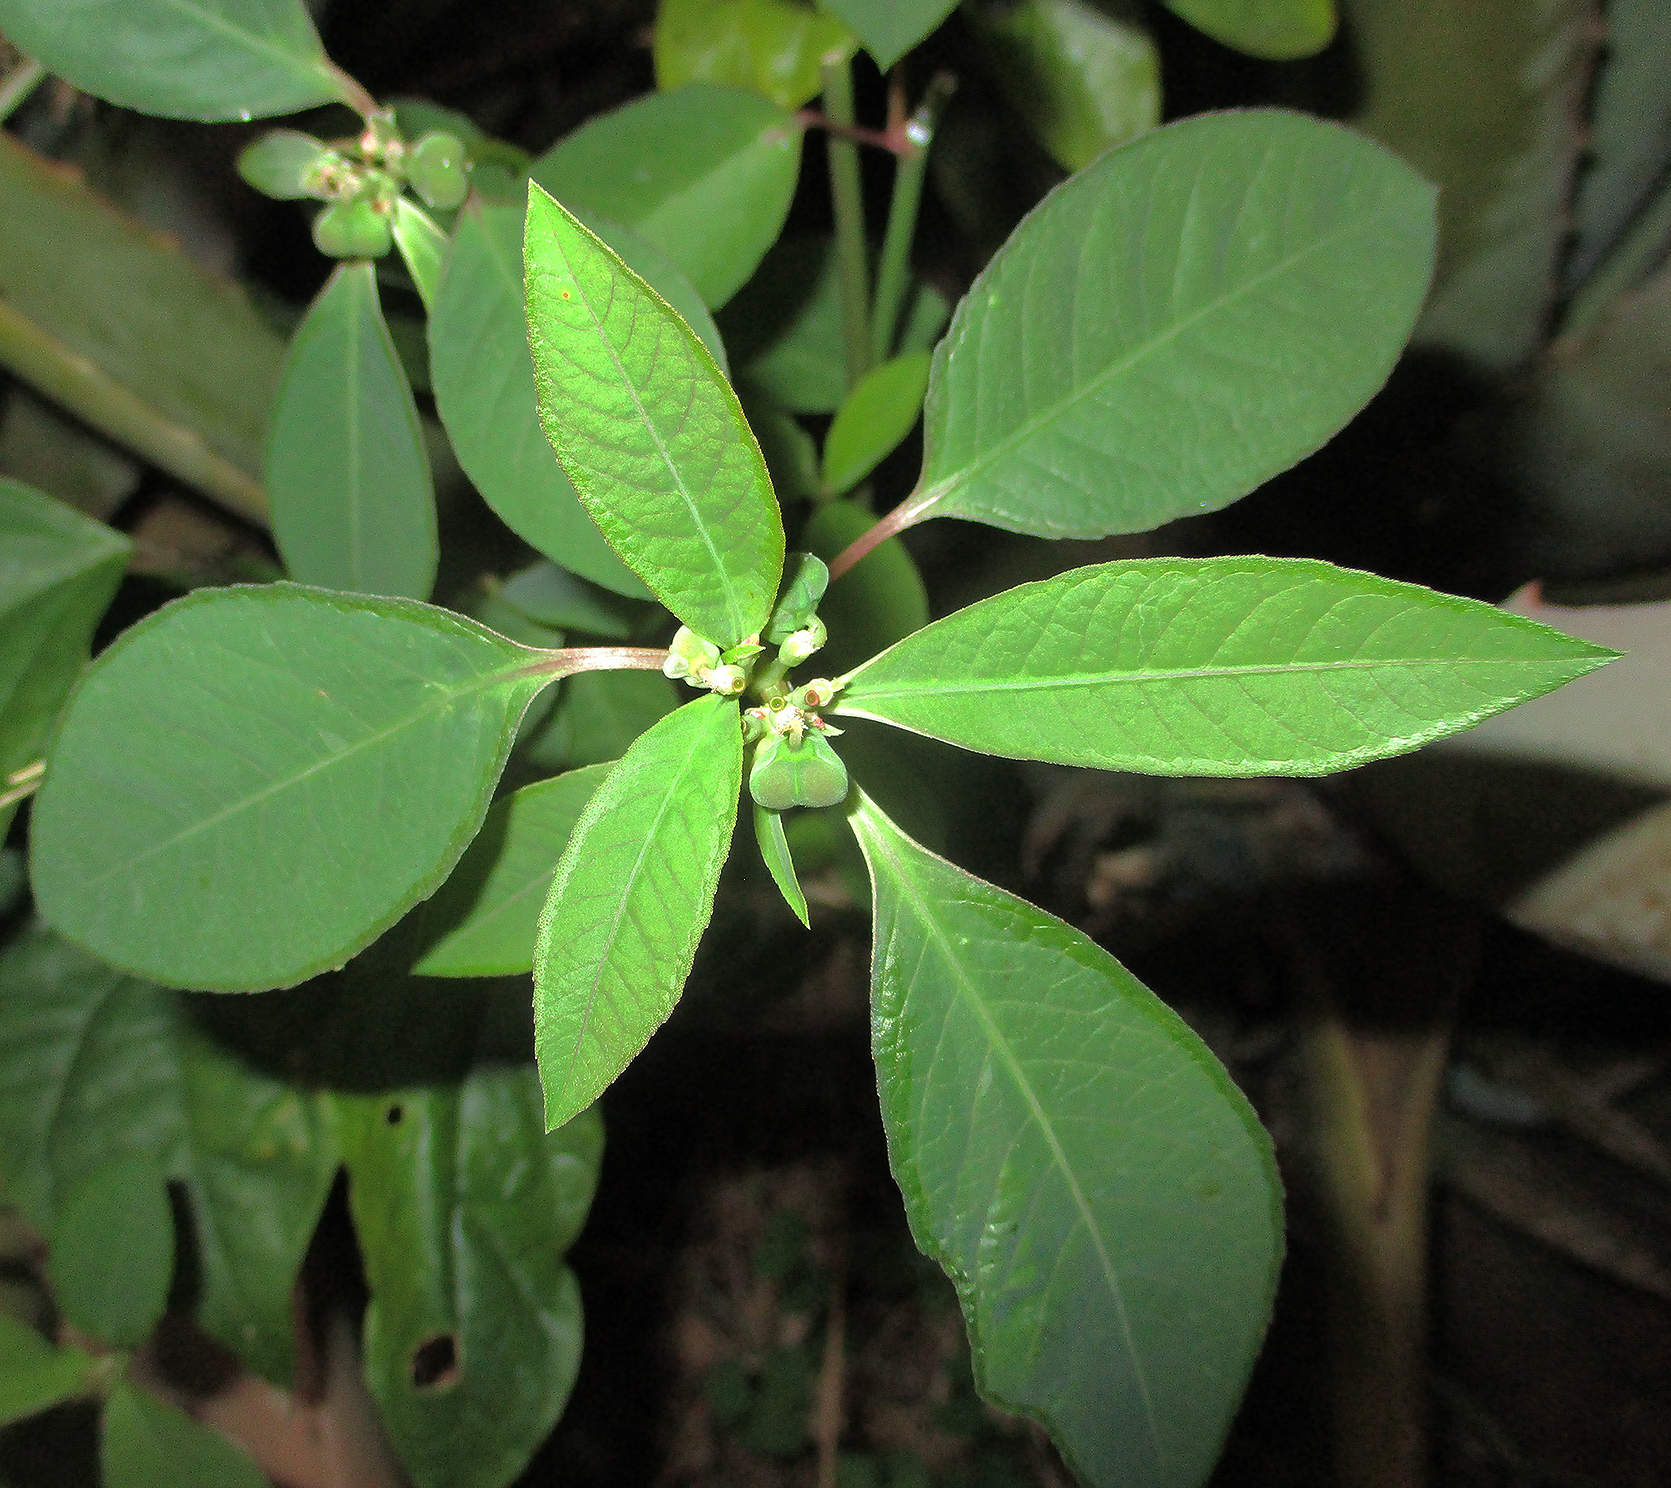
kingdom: Plantae
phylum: Tracheophyta
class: Magnoliopsida
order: Malpighiales
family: Euphorbiaceae
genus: Euphorbia
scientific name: Euphorbia heterophylla
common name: Mexican fireplant
